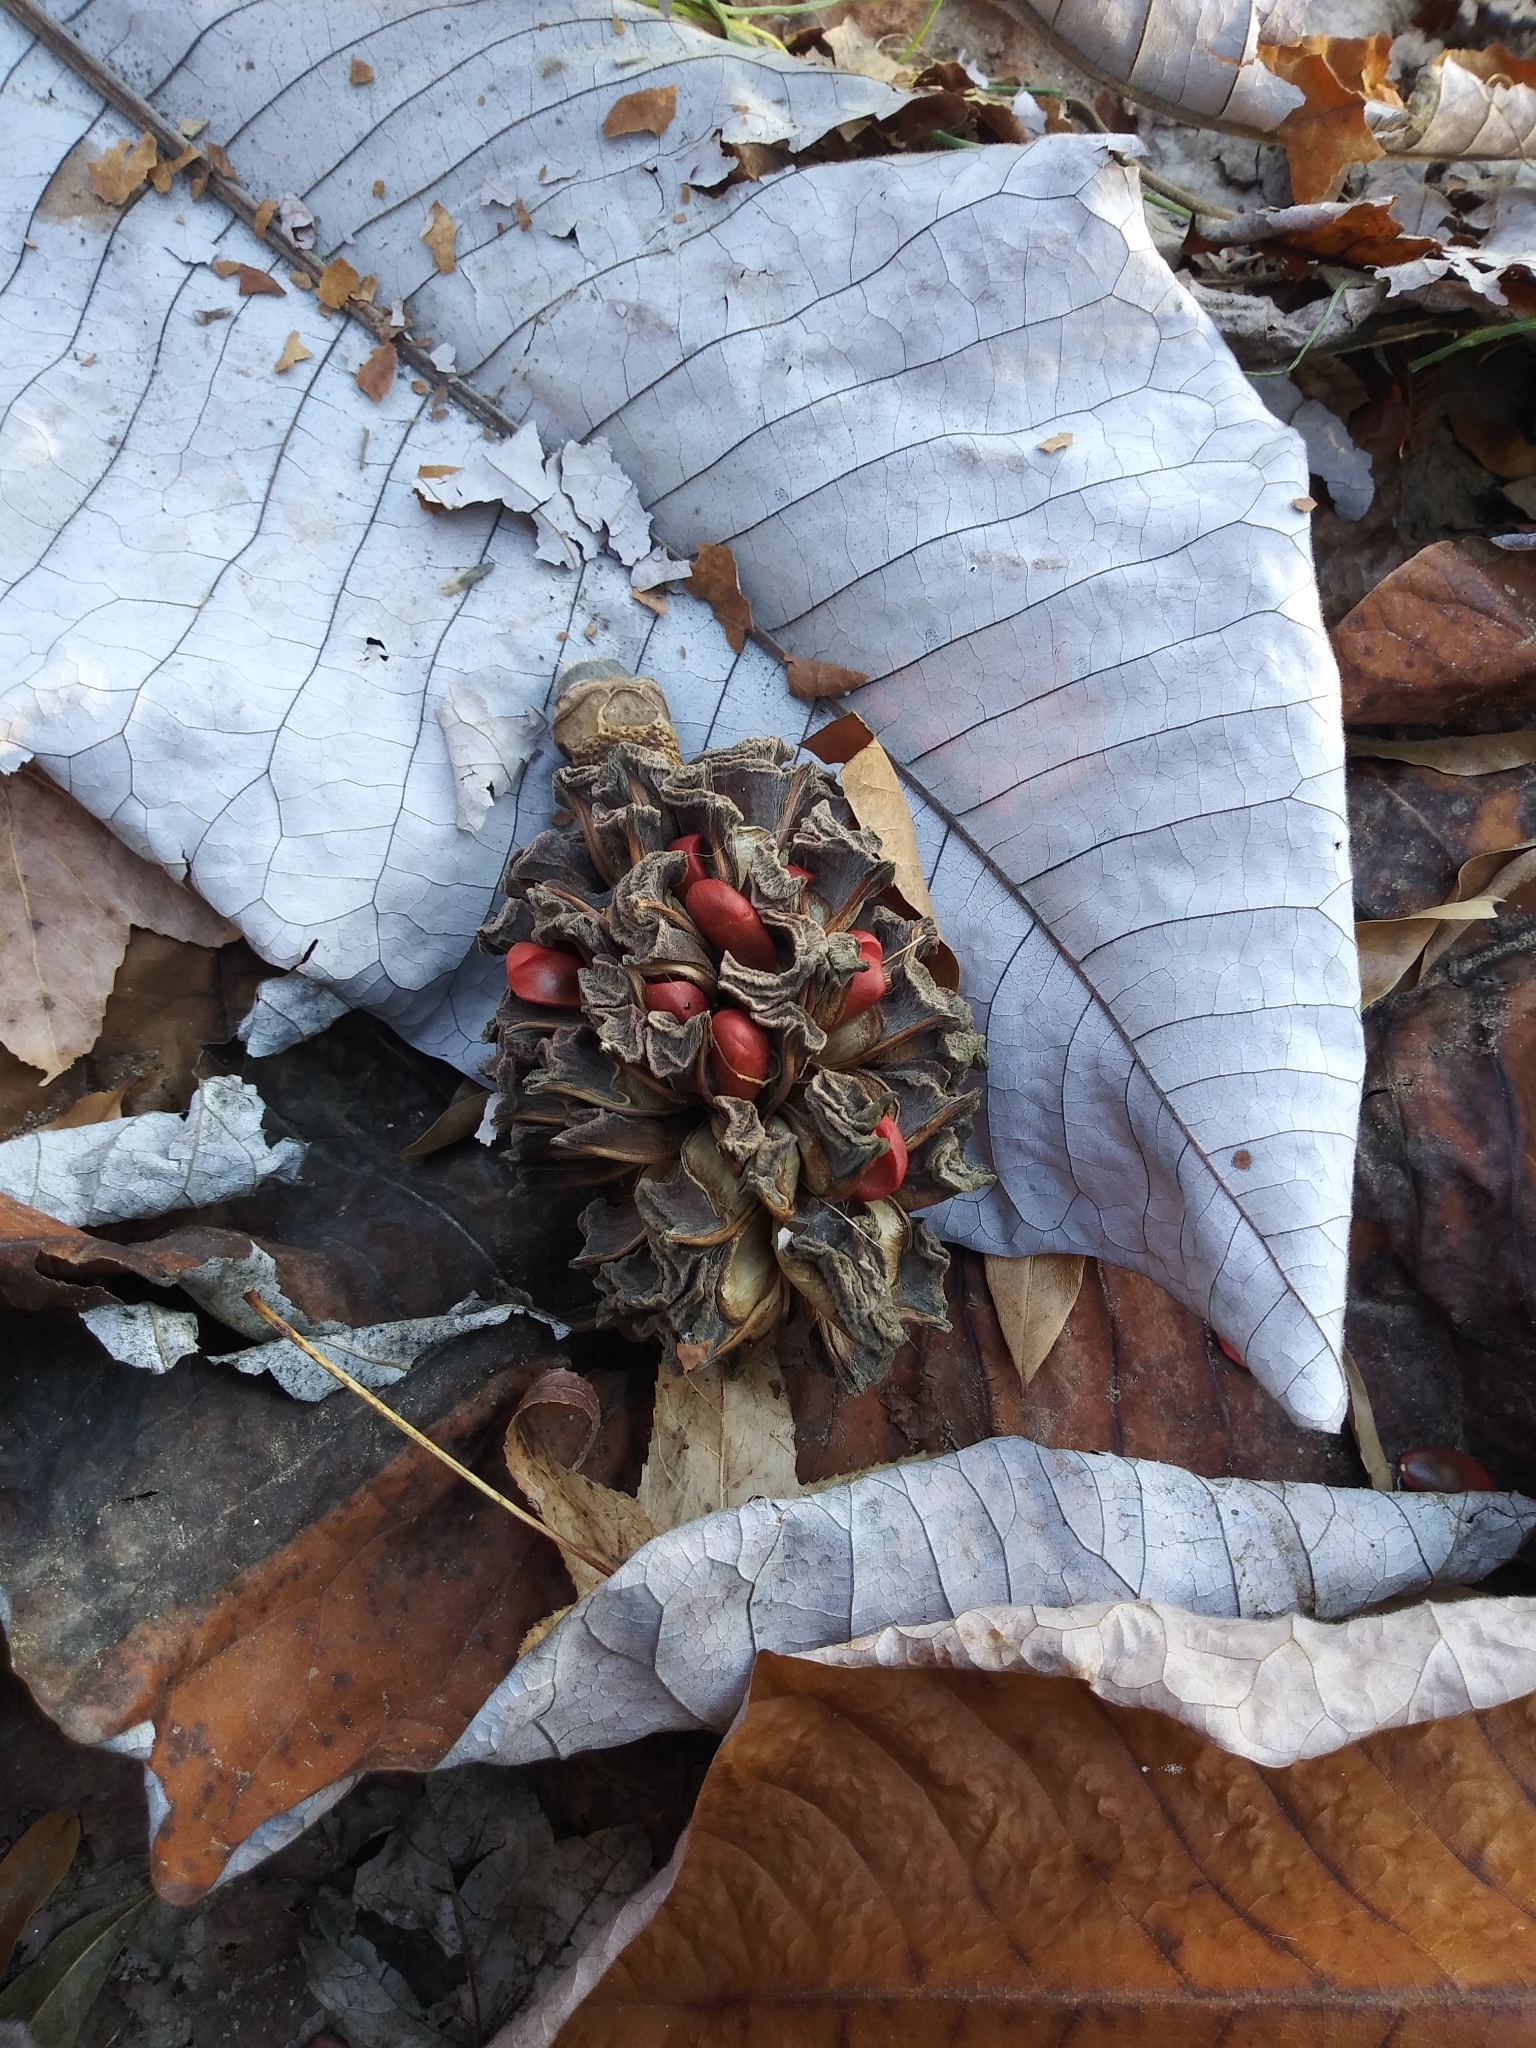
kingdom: Plantae
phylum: Tracheophyta
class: Magnoliopsida
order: Magnoliales
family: Magnoliaceae
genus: Magnolia
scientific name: Magnolia macrophylla
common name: Big-leaf magnolia
